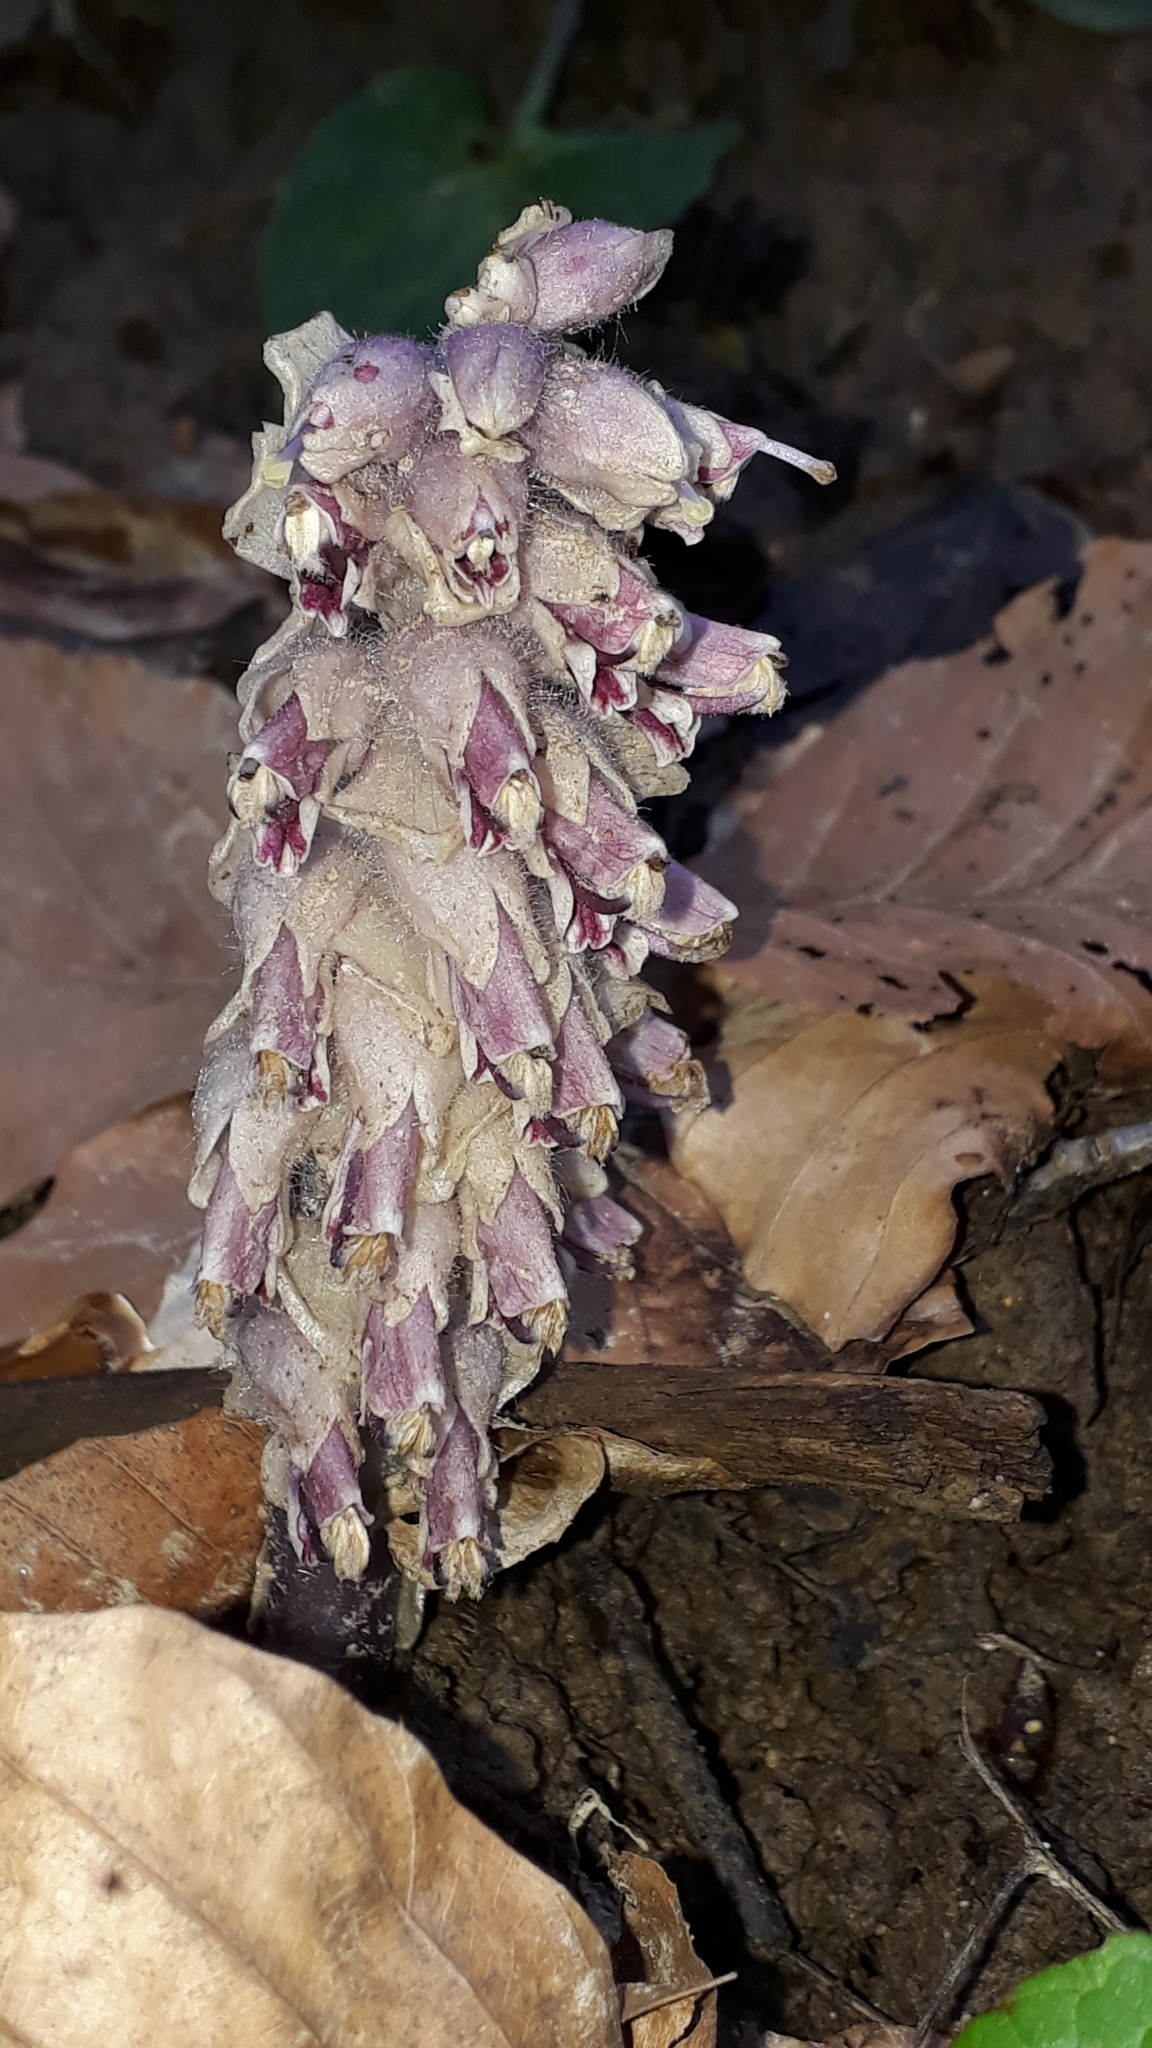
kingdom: Plantae
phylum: Tracheophyta
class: Magnoliopsida
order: Lamiales
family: Orobanchaceae
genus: Lathraea
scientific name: Lathraea squamaria
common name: Toothwort
